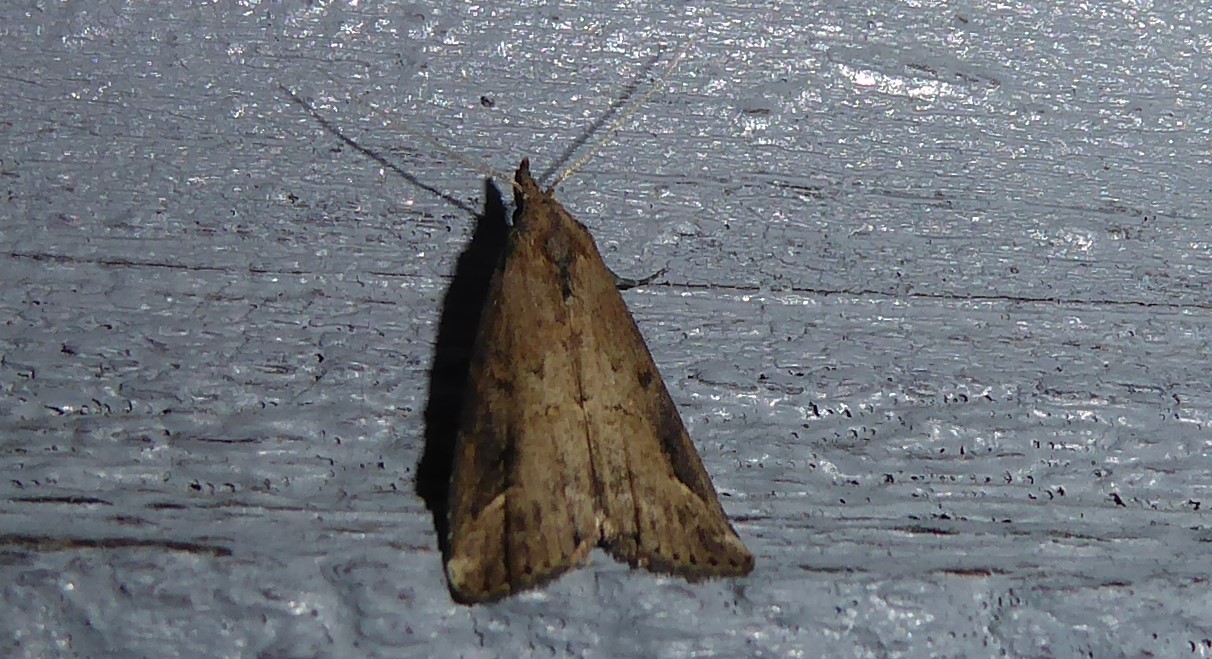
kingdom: Animalia
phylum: Arthropoda
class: Insecta
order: Lepidoptera
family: Erebidae
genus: Schrankia
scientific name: Schrankia costaestrigalis
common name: Pinion-streaked snout
